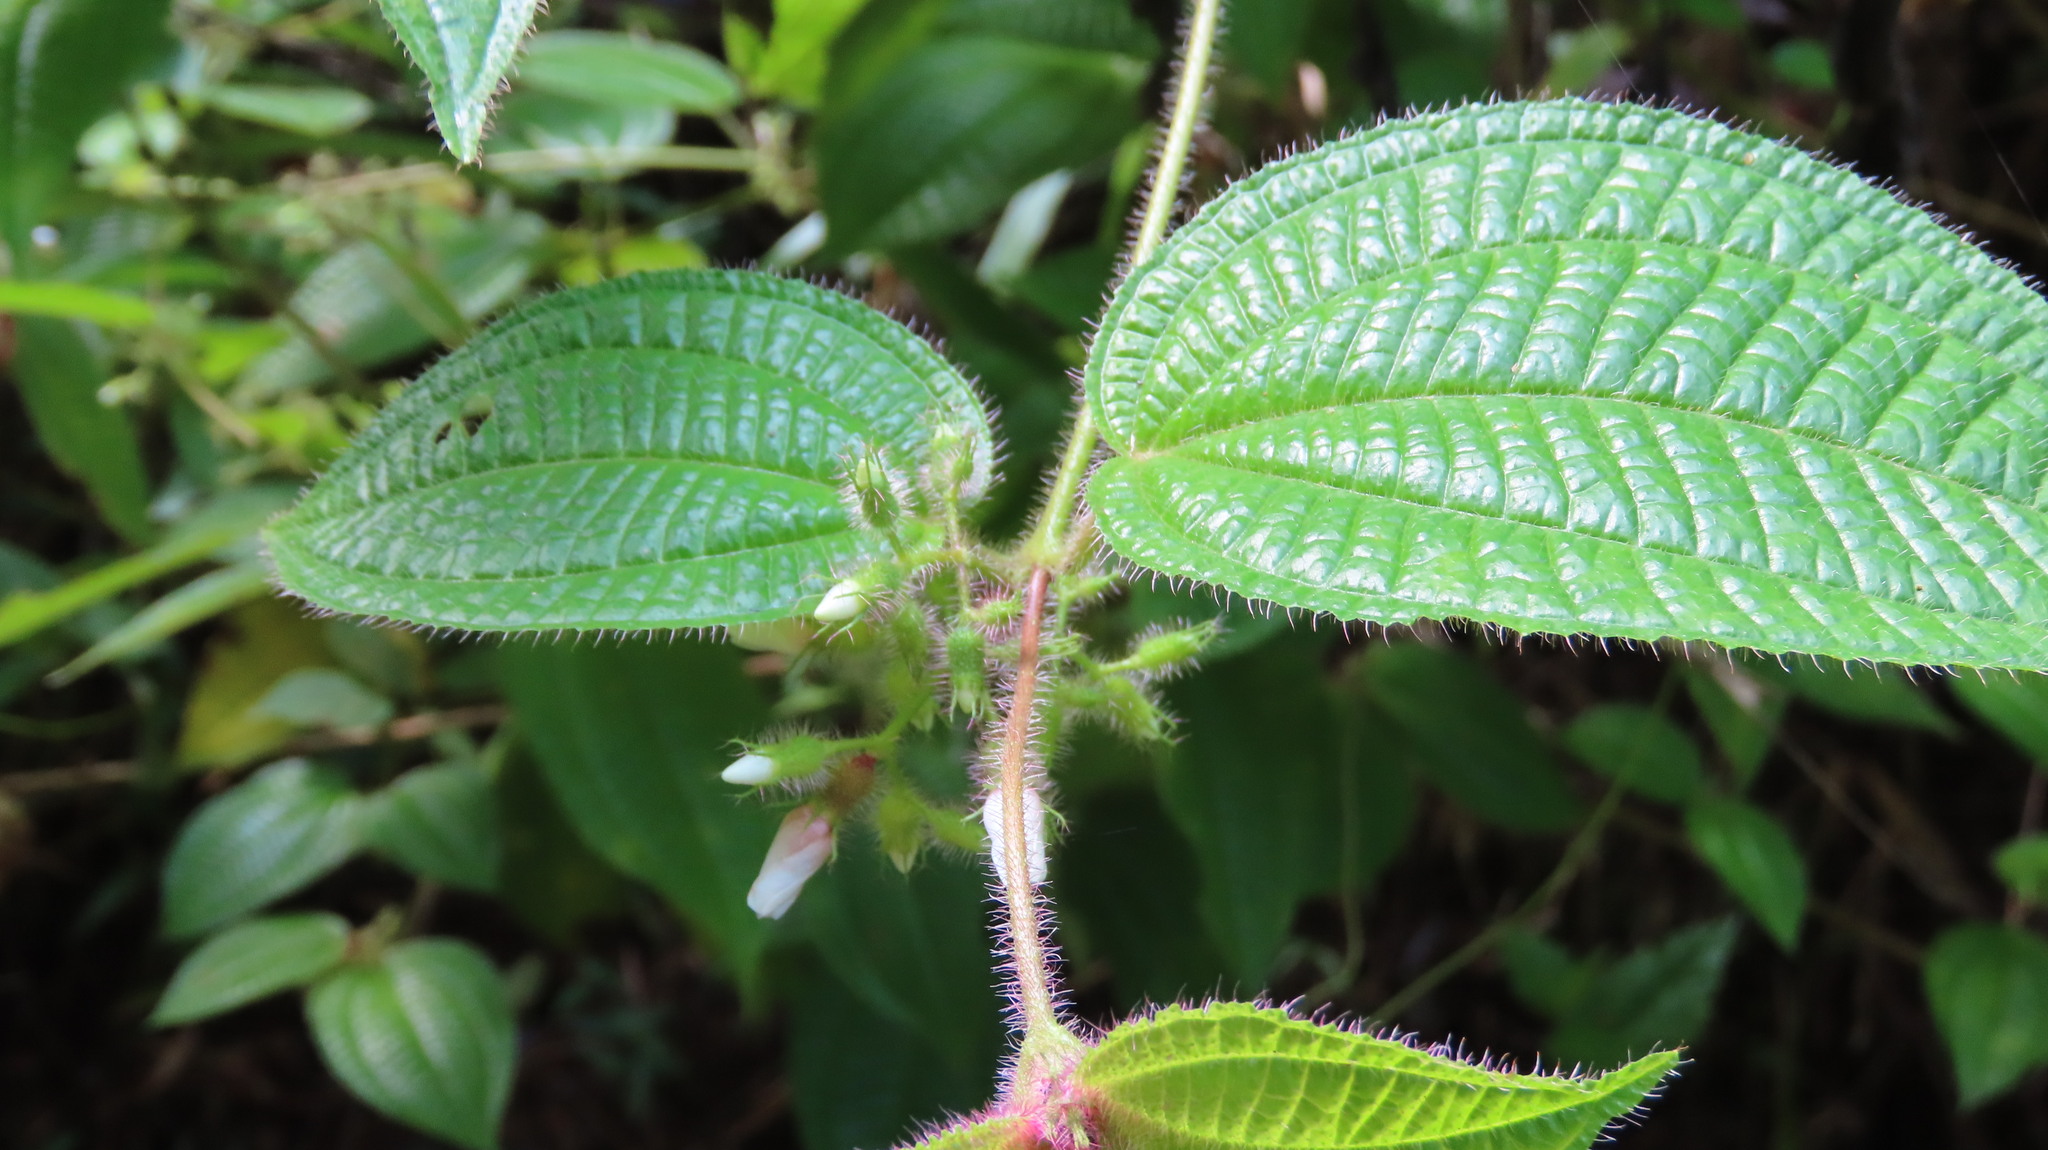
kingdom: Plantae
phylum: Tracheophyta
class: Magnoliopsida
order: Myrtales
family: Melastomataceae
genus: Miconia
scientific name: Miconia crenata
